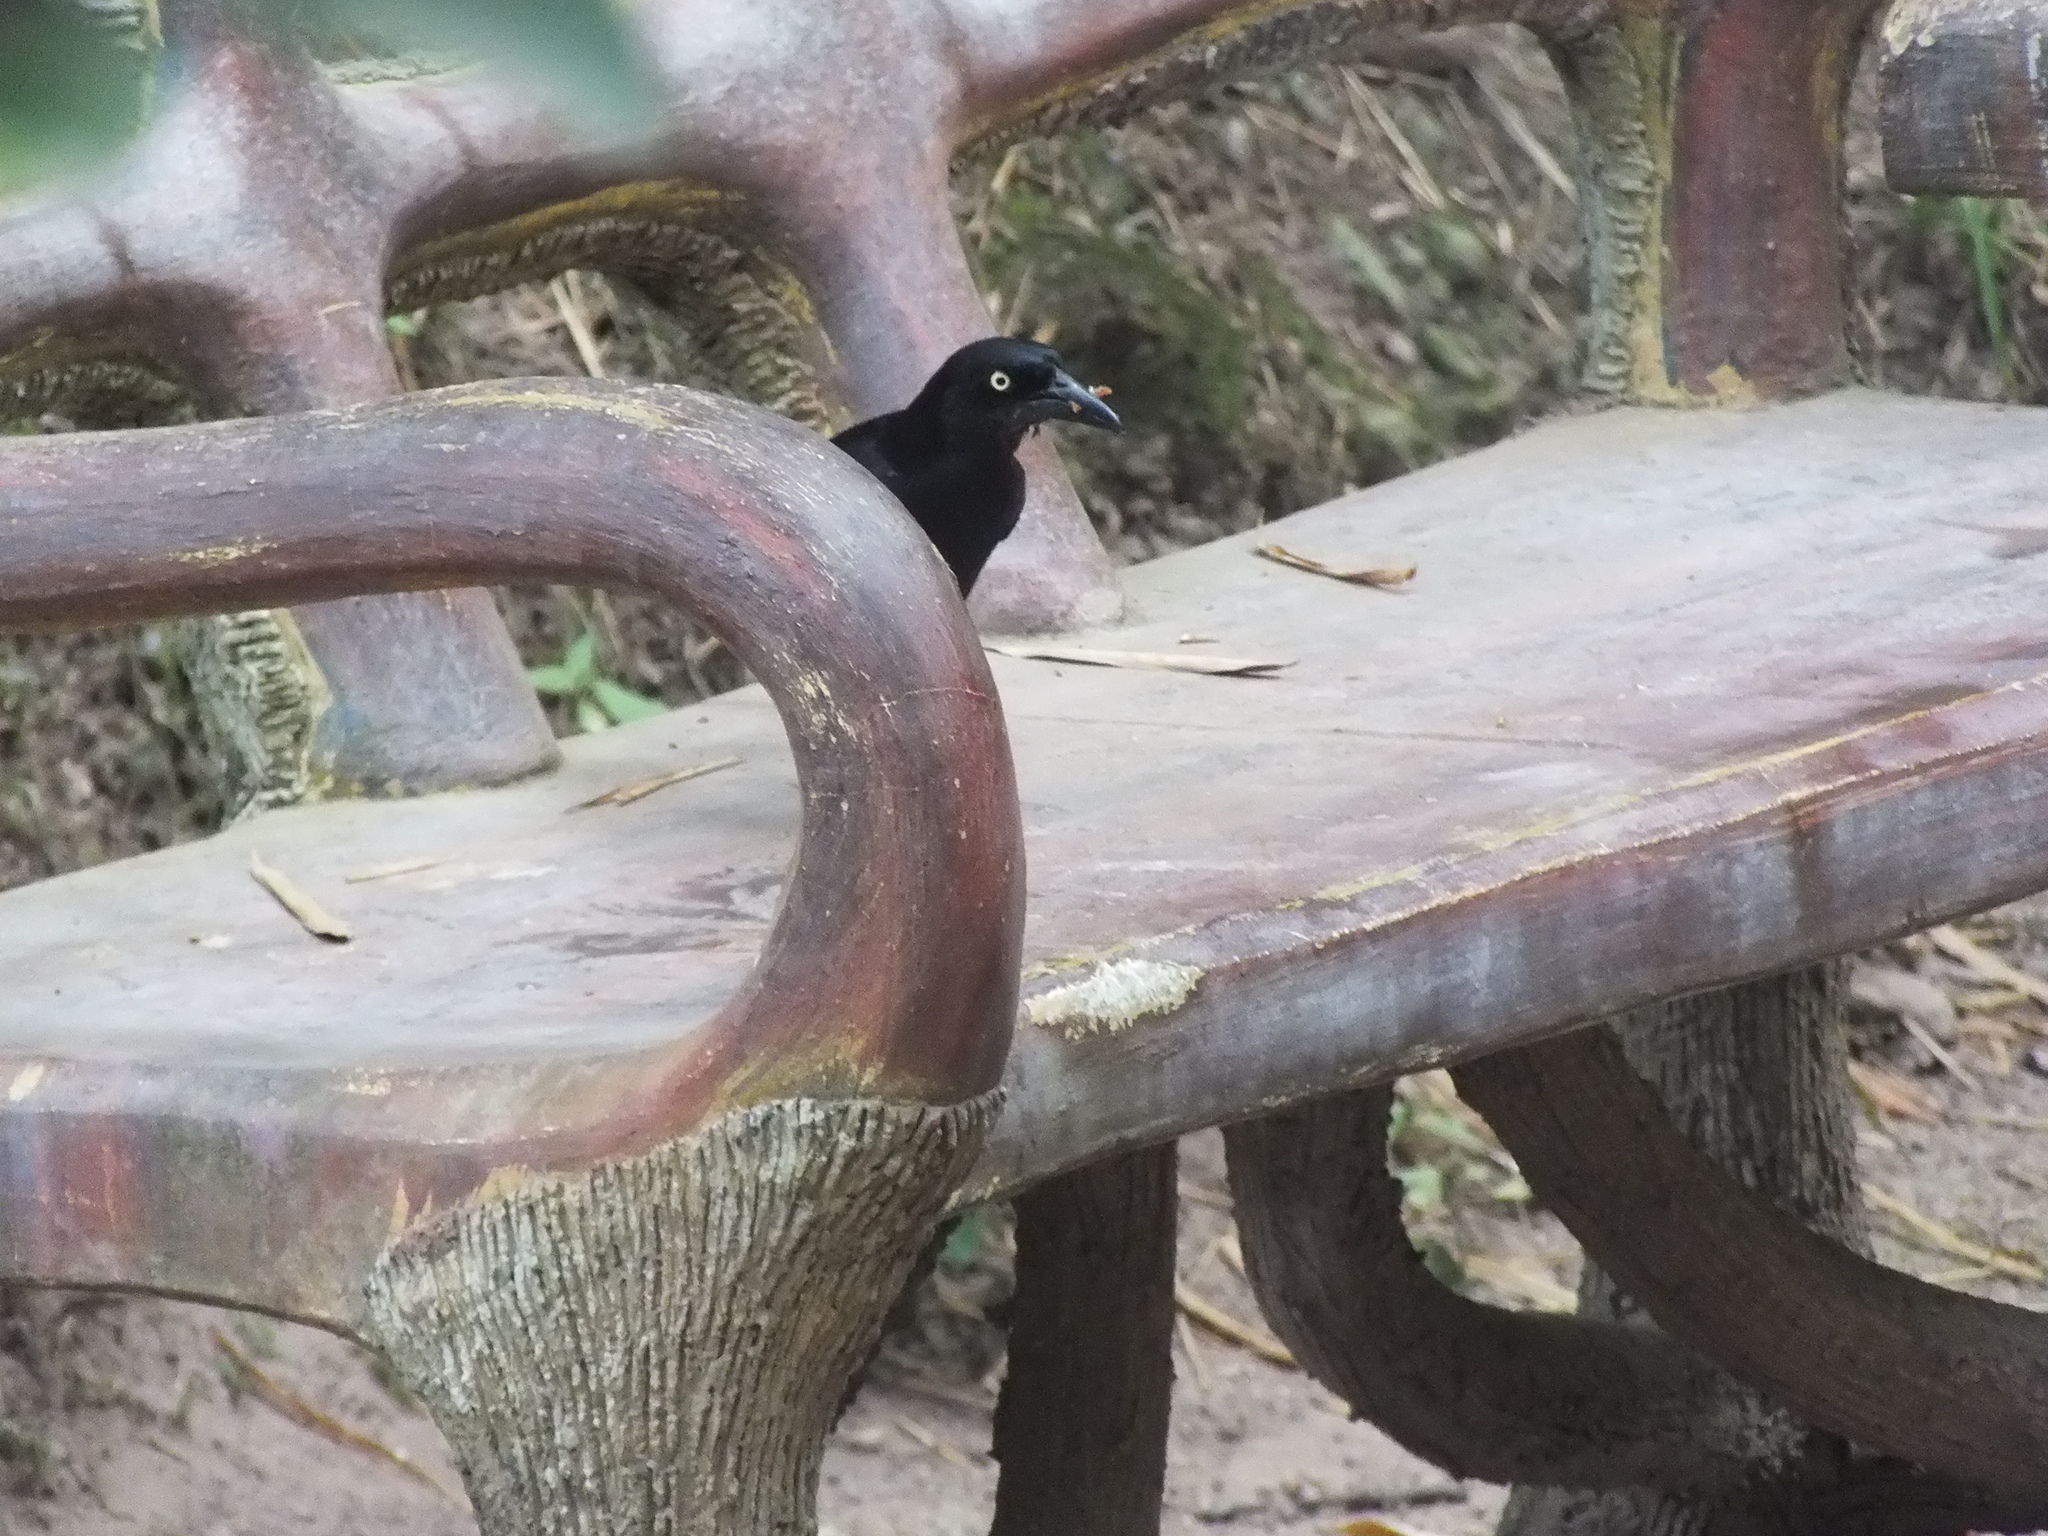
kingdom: Animalia
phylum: Chordata
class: Aves
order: Passeriformes
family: Icteridae
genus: Quiscalus
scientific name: Quiscalus niger
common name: Greater antillean grackle
